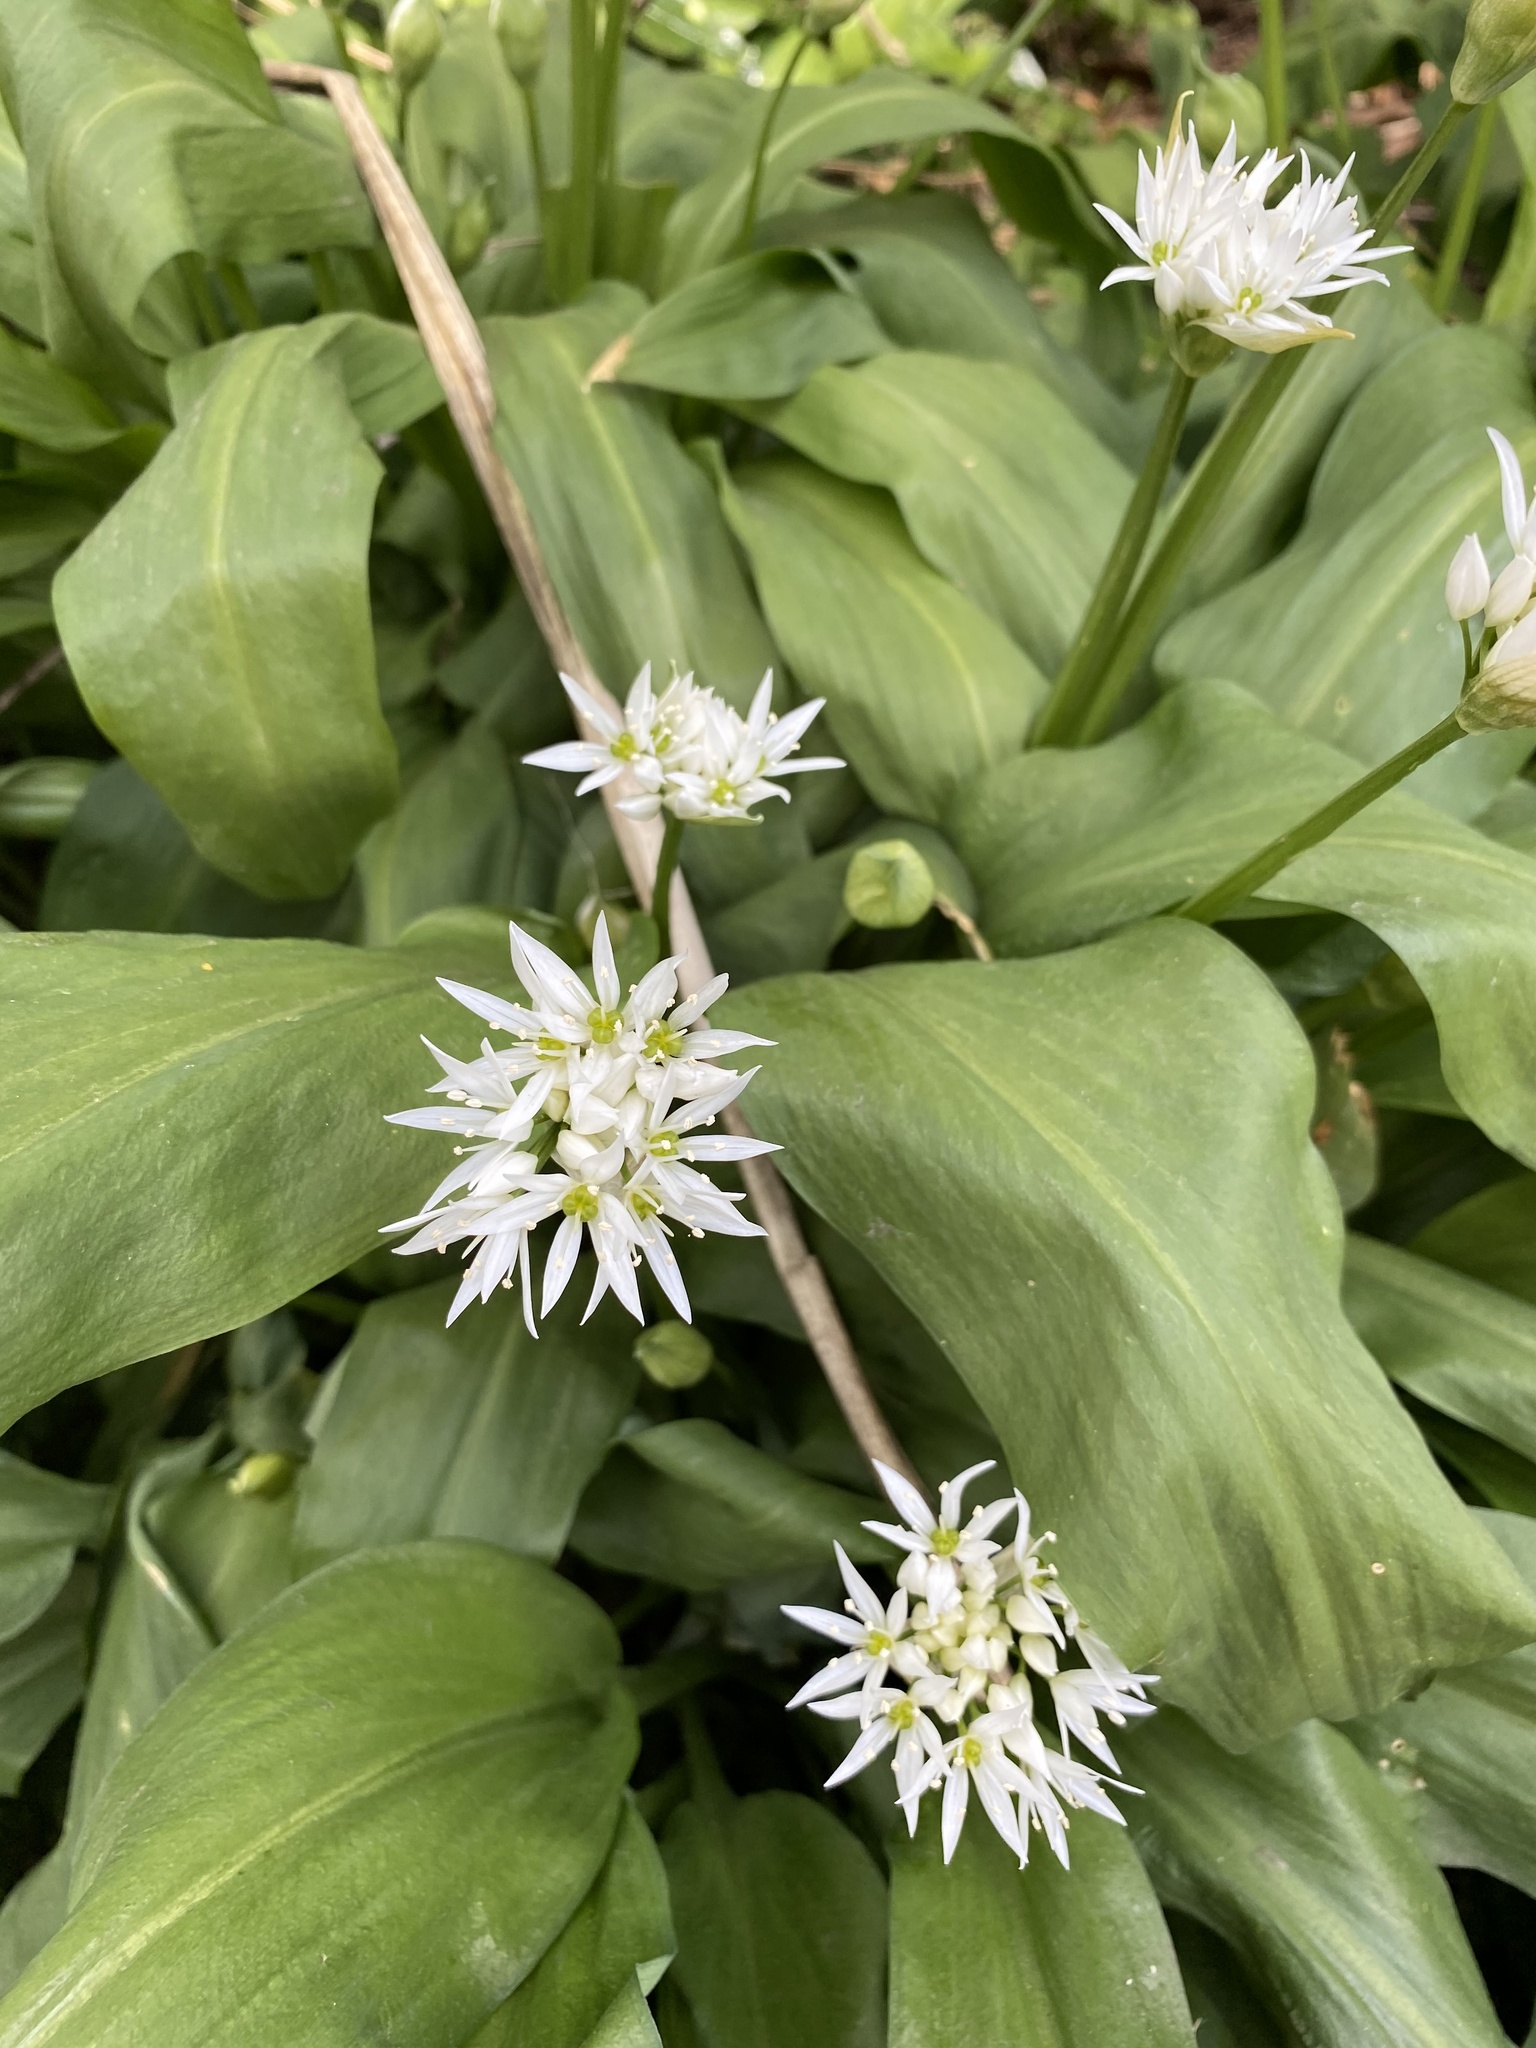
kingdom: Plantae
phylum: Tracheophyta
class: Liliopsida
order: Asparagales
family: Amaryllidaceae
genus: Allium
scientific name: Allium ursinum
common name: Ramsons
